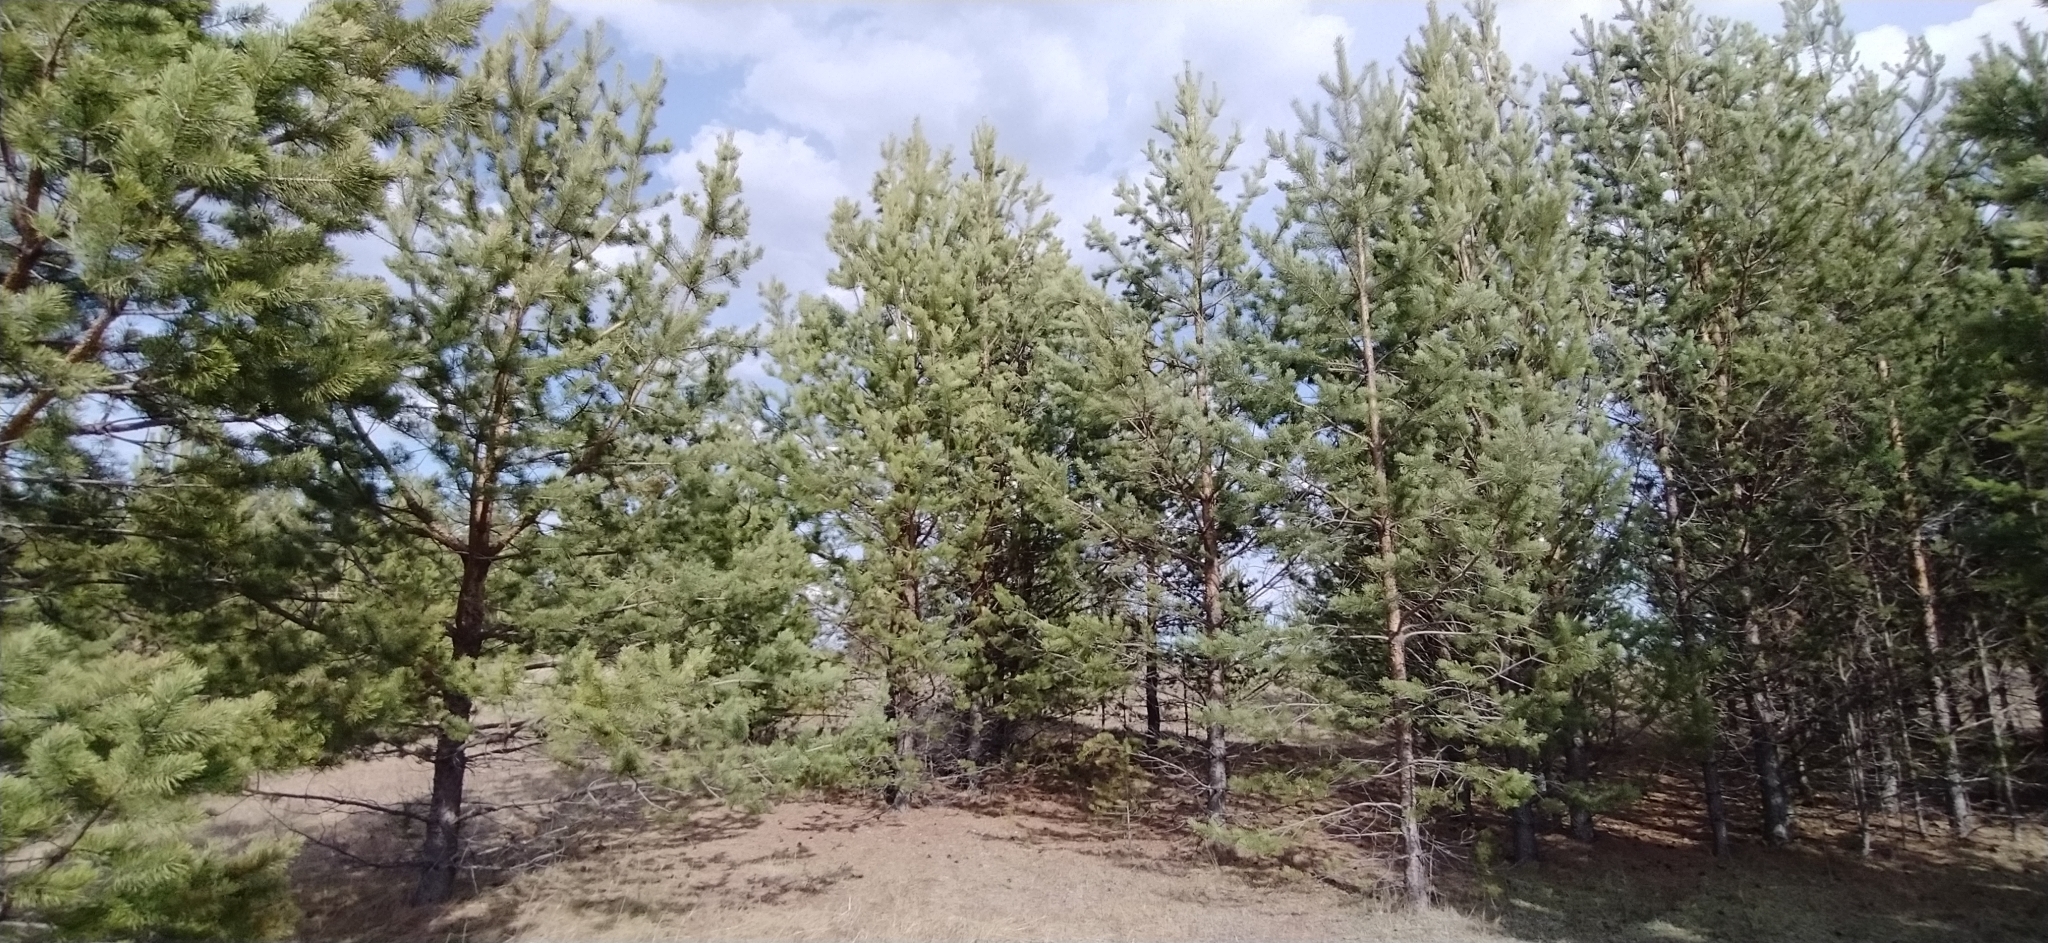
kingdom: Plantae
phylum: Tracheophyta
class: Pinopsida
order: Pinales
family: Pinaceae
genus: Pinus
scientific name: Pinus sylvestris
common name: Scots pine
